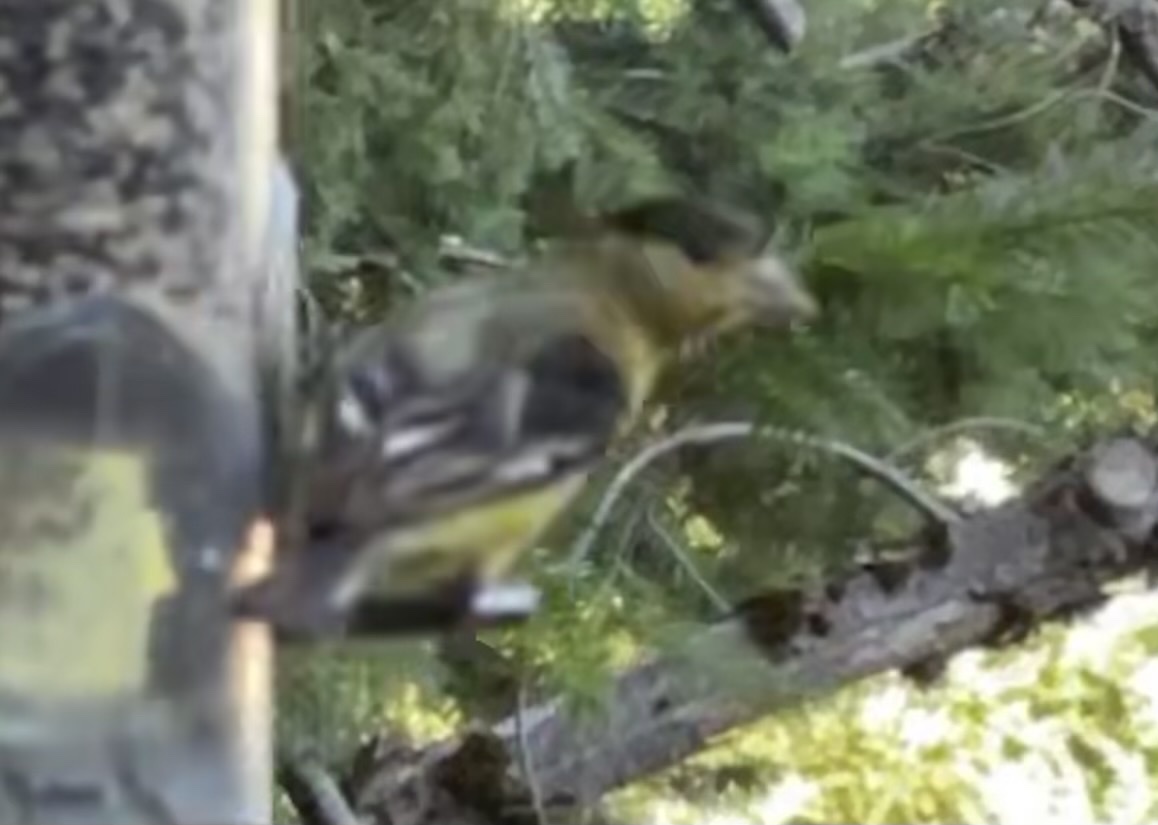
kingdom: Animalia
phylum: Chordata
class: Aves
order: Passeriformes
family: Fringillidae
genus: Spinus
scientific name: Spinus psaltria
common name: Lesser goldfinch
